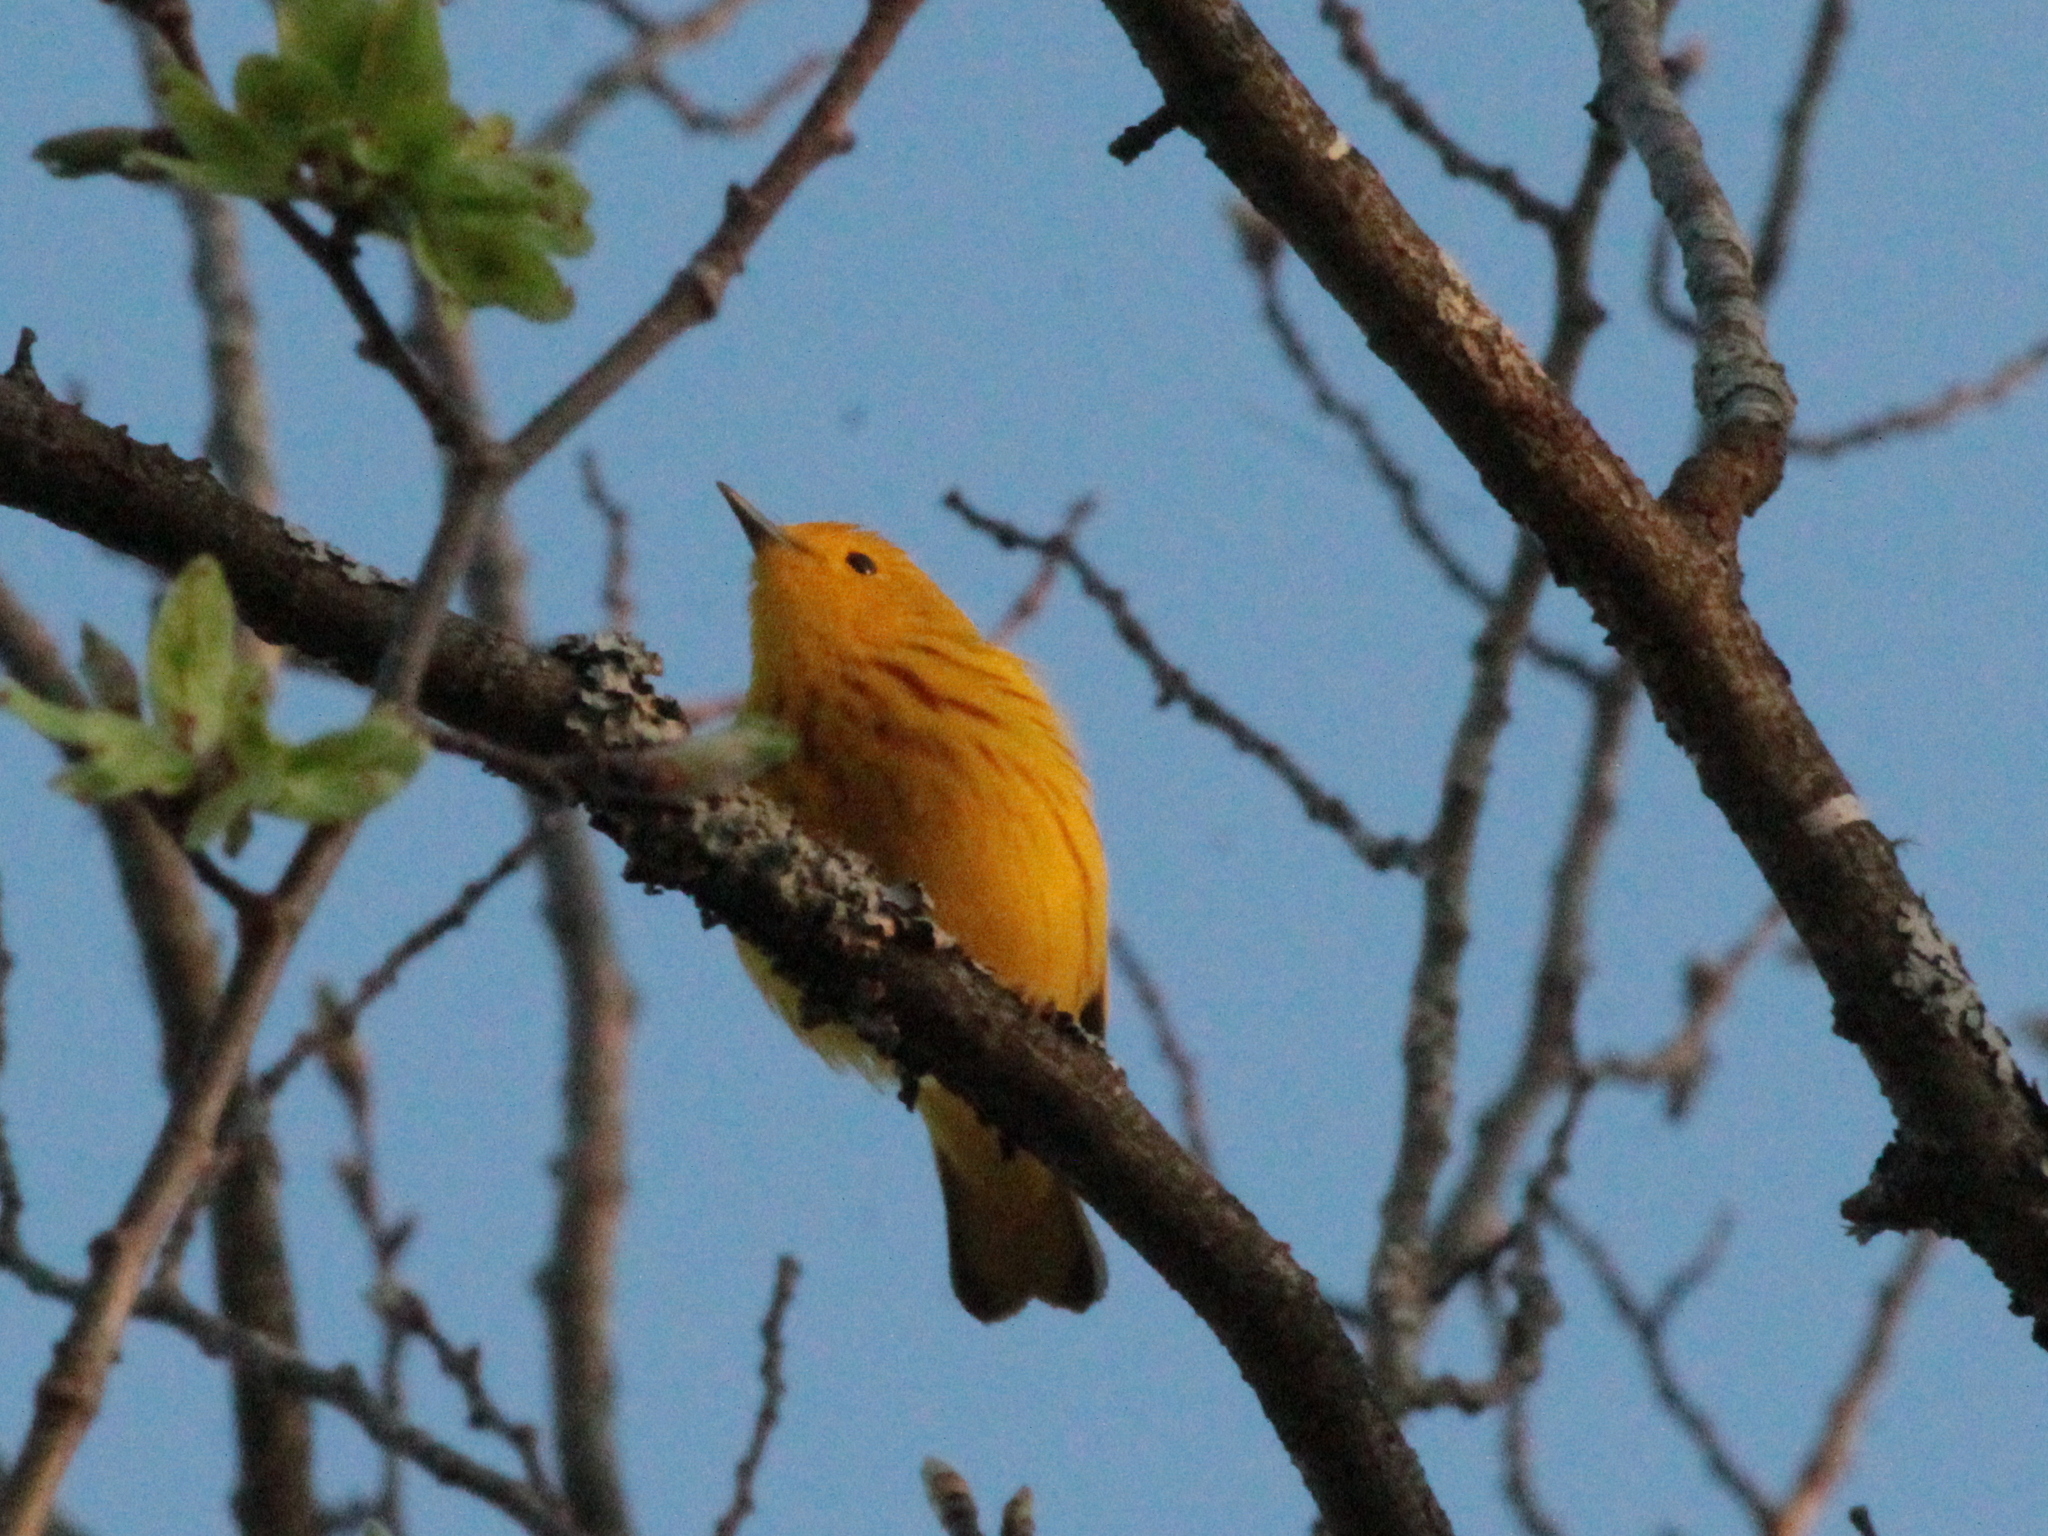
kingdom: Animalia
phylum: Chordata
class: Aves
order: Passeriformes
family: Parulidae
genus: Setophaga
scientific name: Setophaga petechia
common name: Yellow warbler
